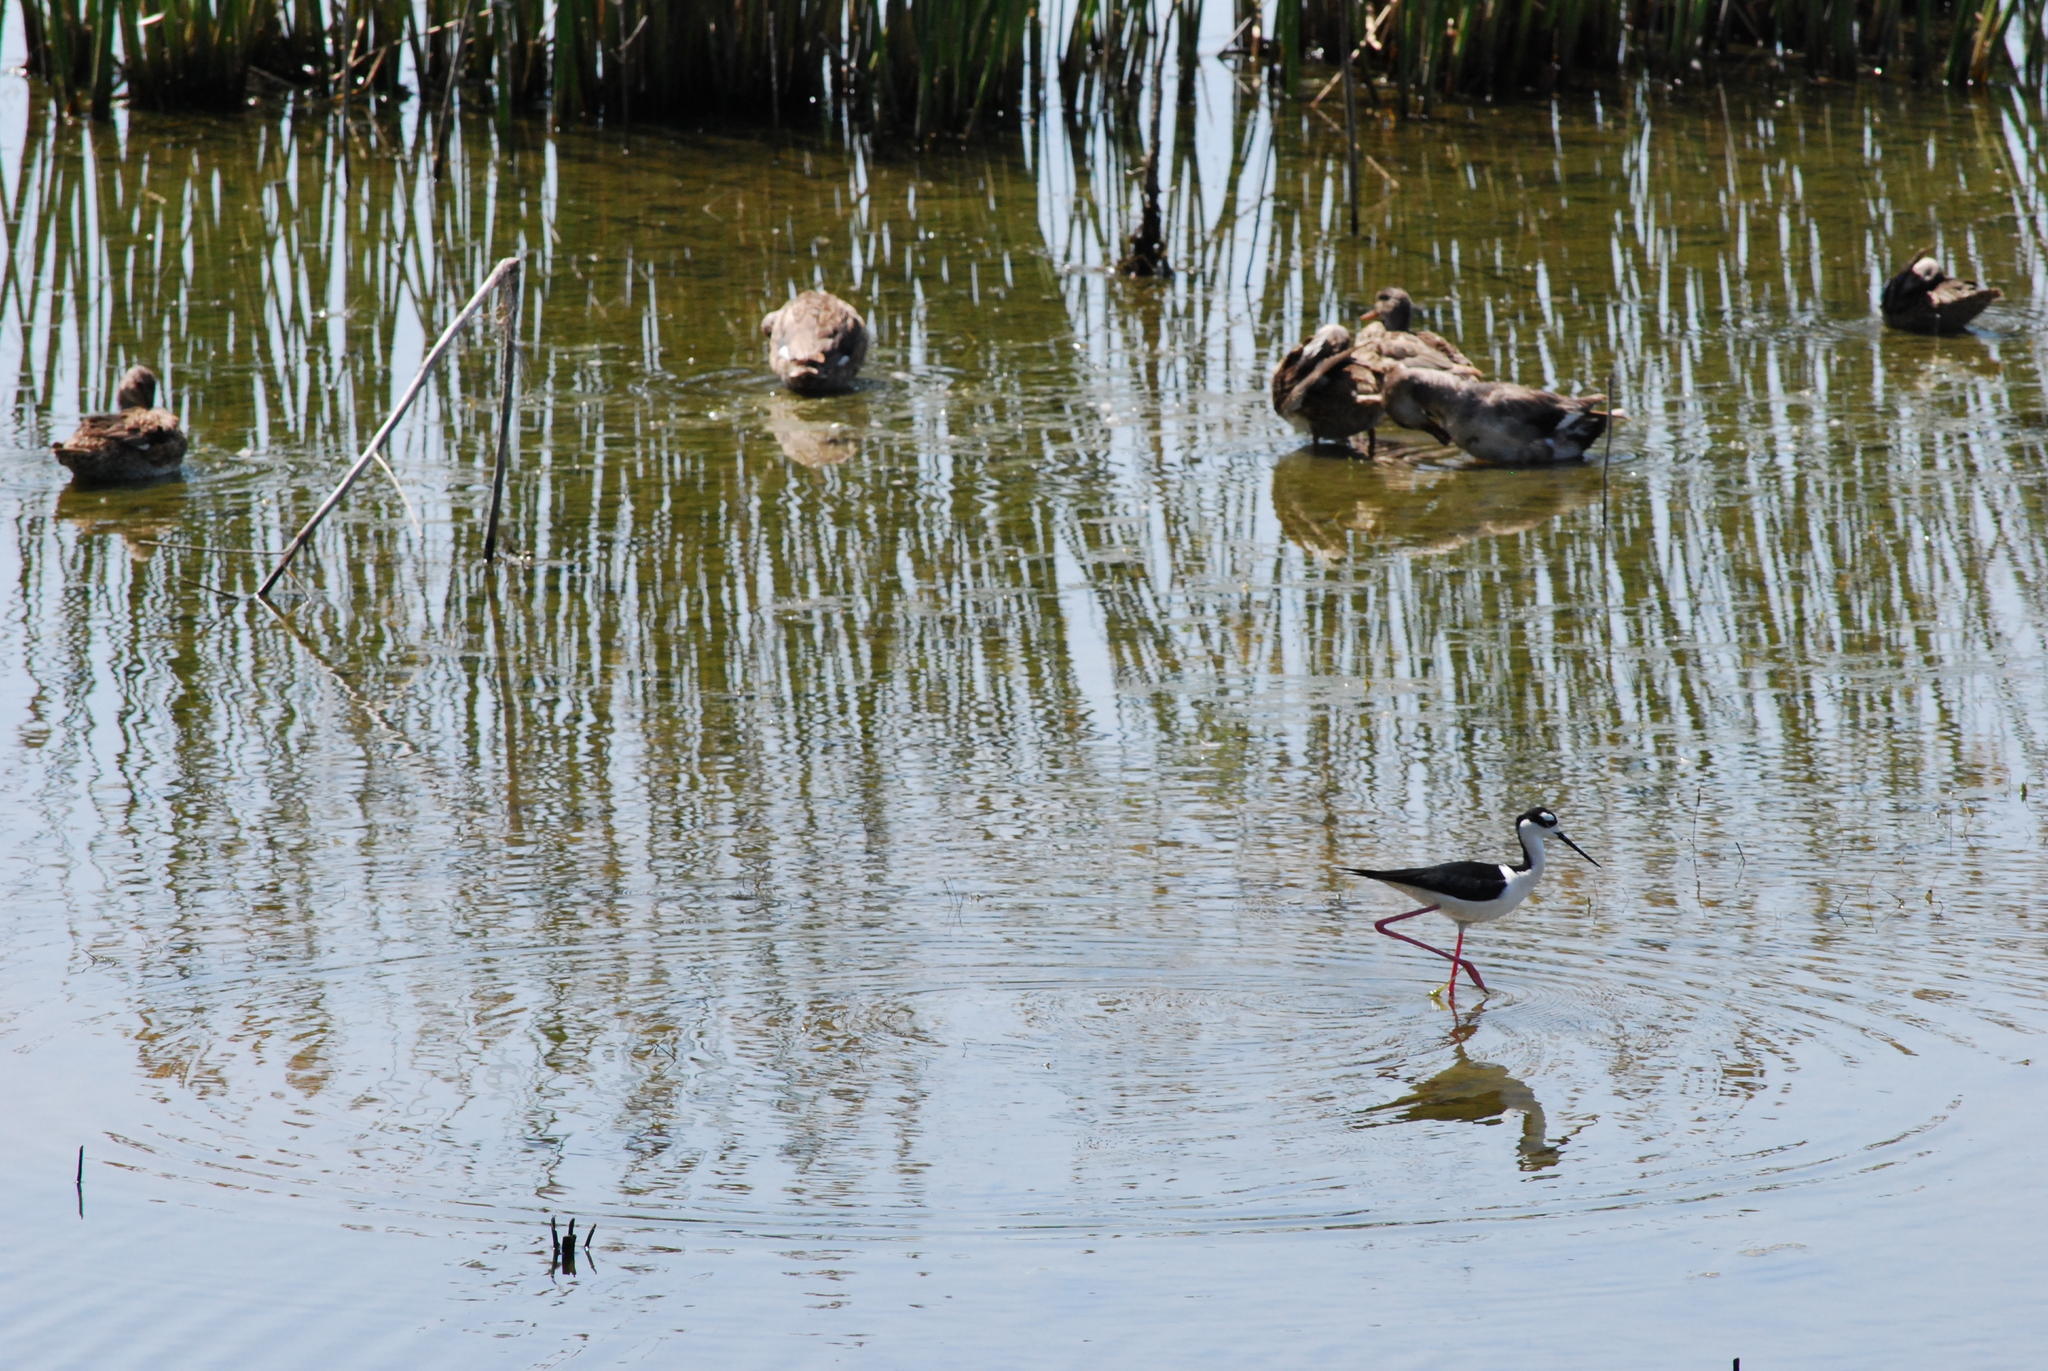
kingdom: Animalia
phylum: Chordata
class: Aves
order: Charadriiformes
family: Recurvirostridae
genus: Himantopus
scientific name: Himantopus mexicanus
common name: Black-necked stilt
